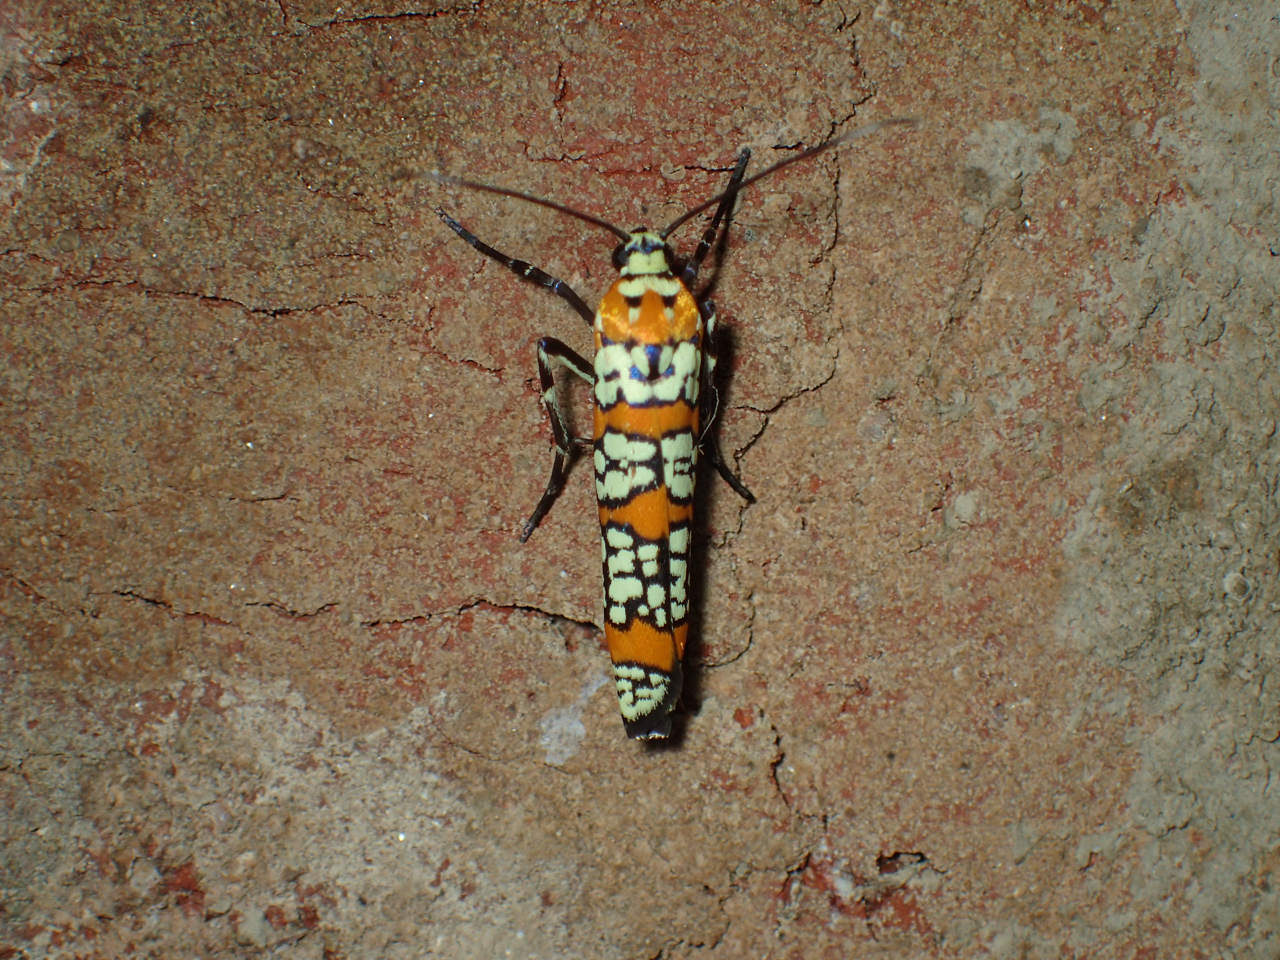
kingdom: Animalia
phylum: Arthropoda
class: Insecta
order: Lepidoptera
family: Attevidae
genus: Atteva
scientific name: Atteva punctella
